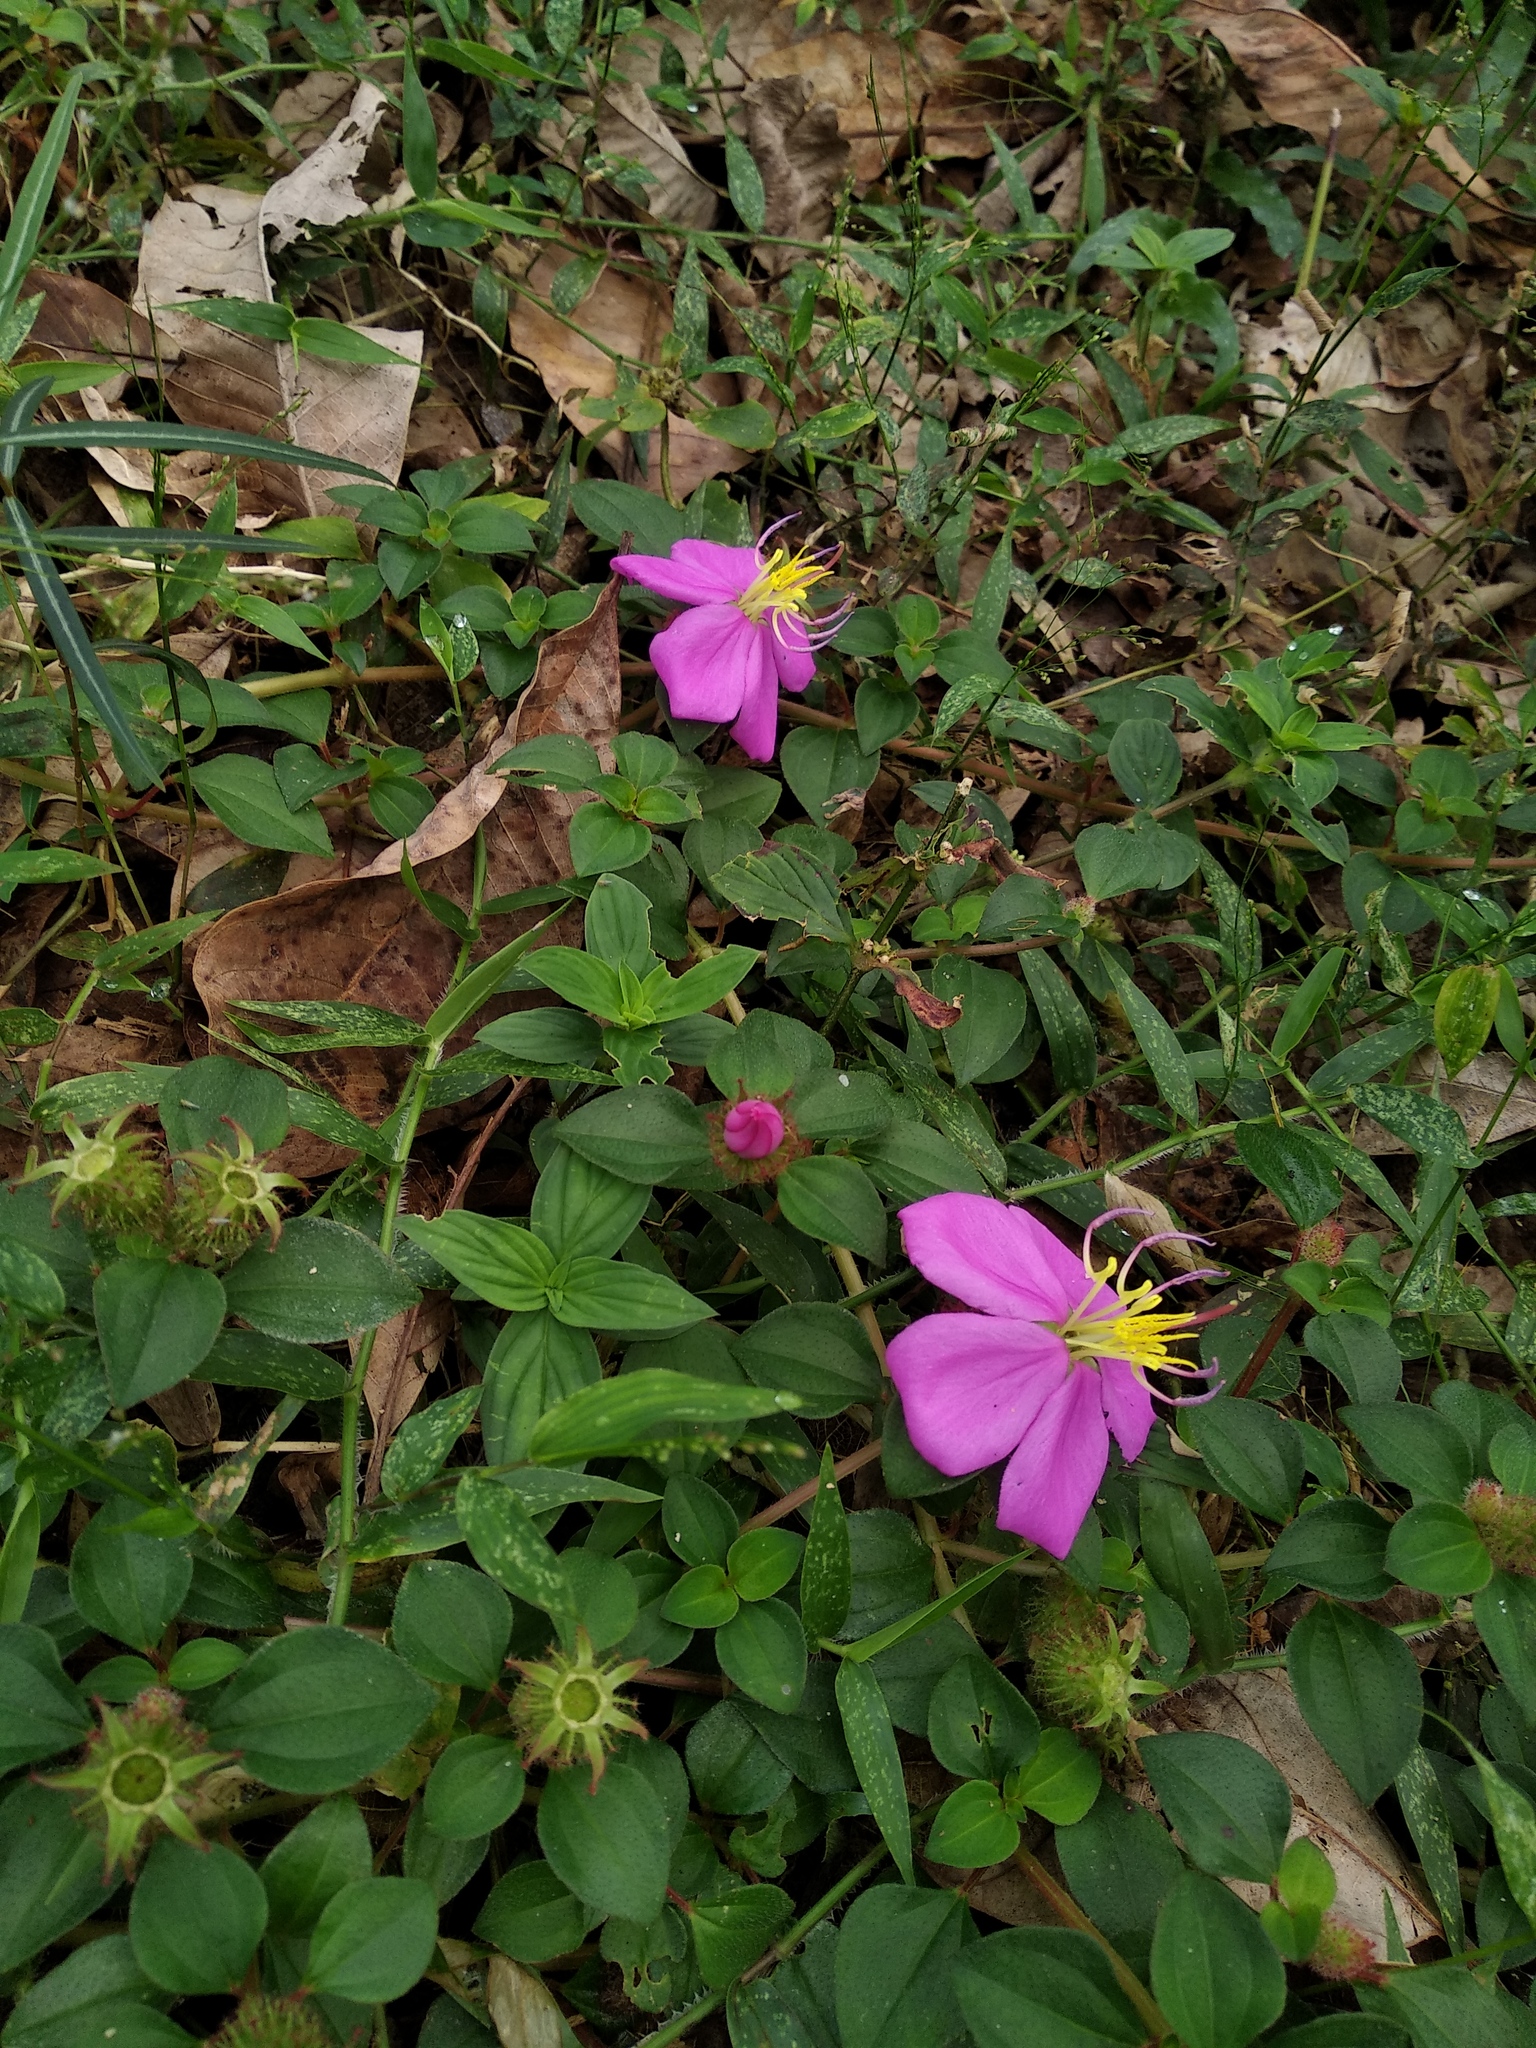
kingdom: Plantae
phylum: Tracheophyta
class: Magnoliopsida
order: Myrtales
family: Melastomataceae
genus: Heterotis
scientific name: Heterotis rotundifolia
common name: Pinklady
